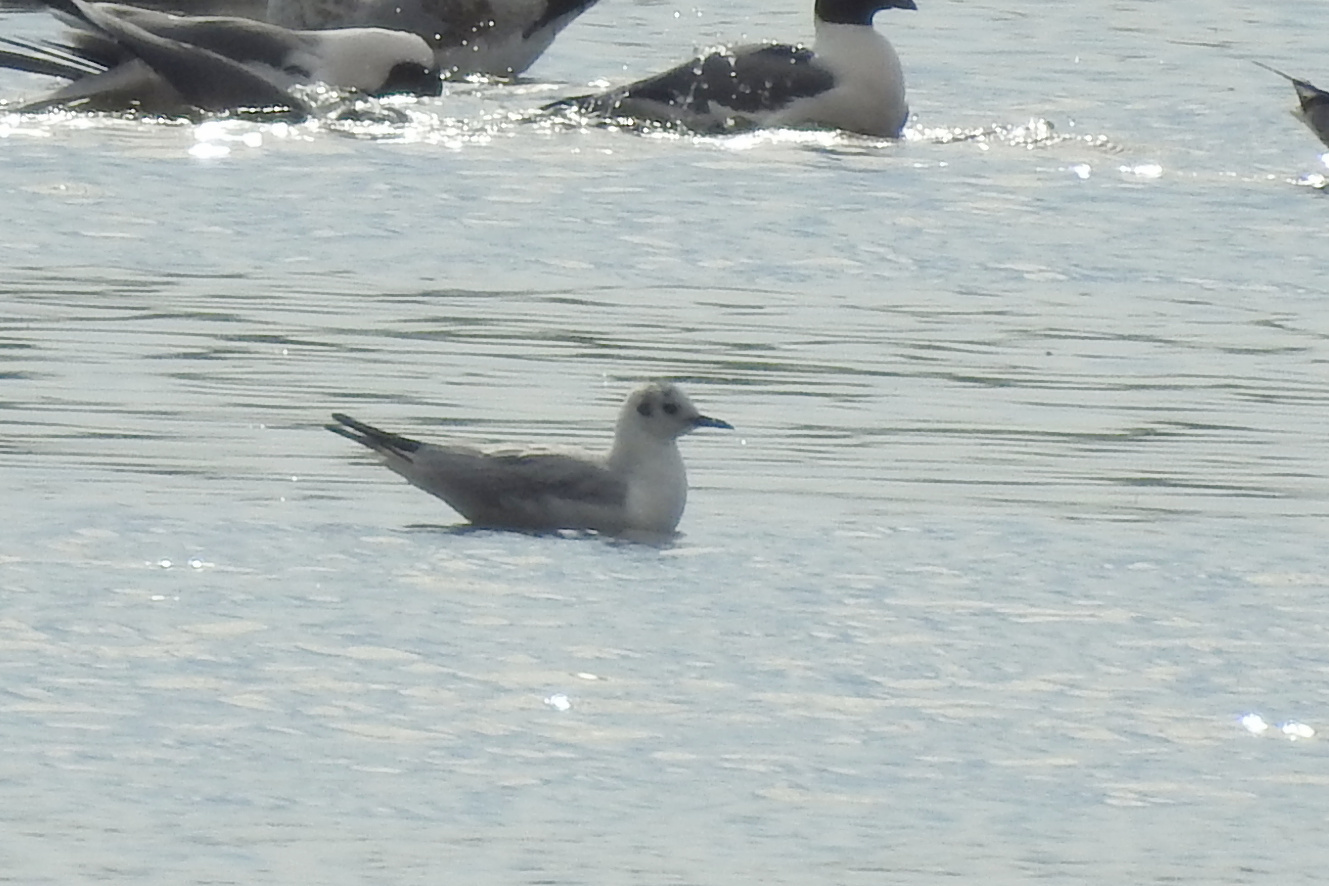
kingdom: Animalia
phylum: Chordata
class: Aves
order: Charadriiformes
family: Laridae
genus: Chroicocephalus
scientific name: Chroicocephalus philadelphia
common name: Bonaparte's gull
